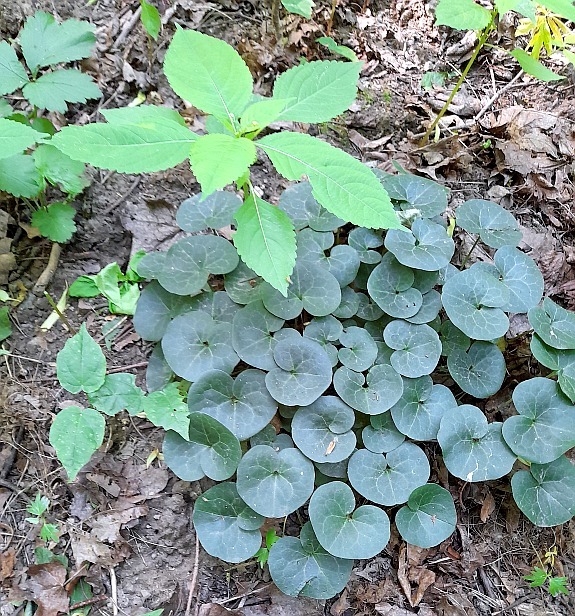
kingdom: Plantae
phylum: Tracheophyta
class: Magnoliopsida
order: Piperales
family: Aristolochiaceae
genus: Asarum
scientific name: Asarum europaeum
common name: Asarabacca
